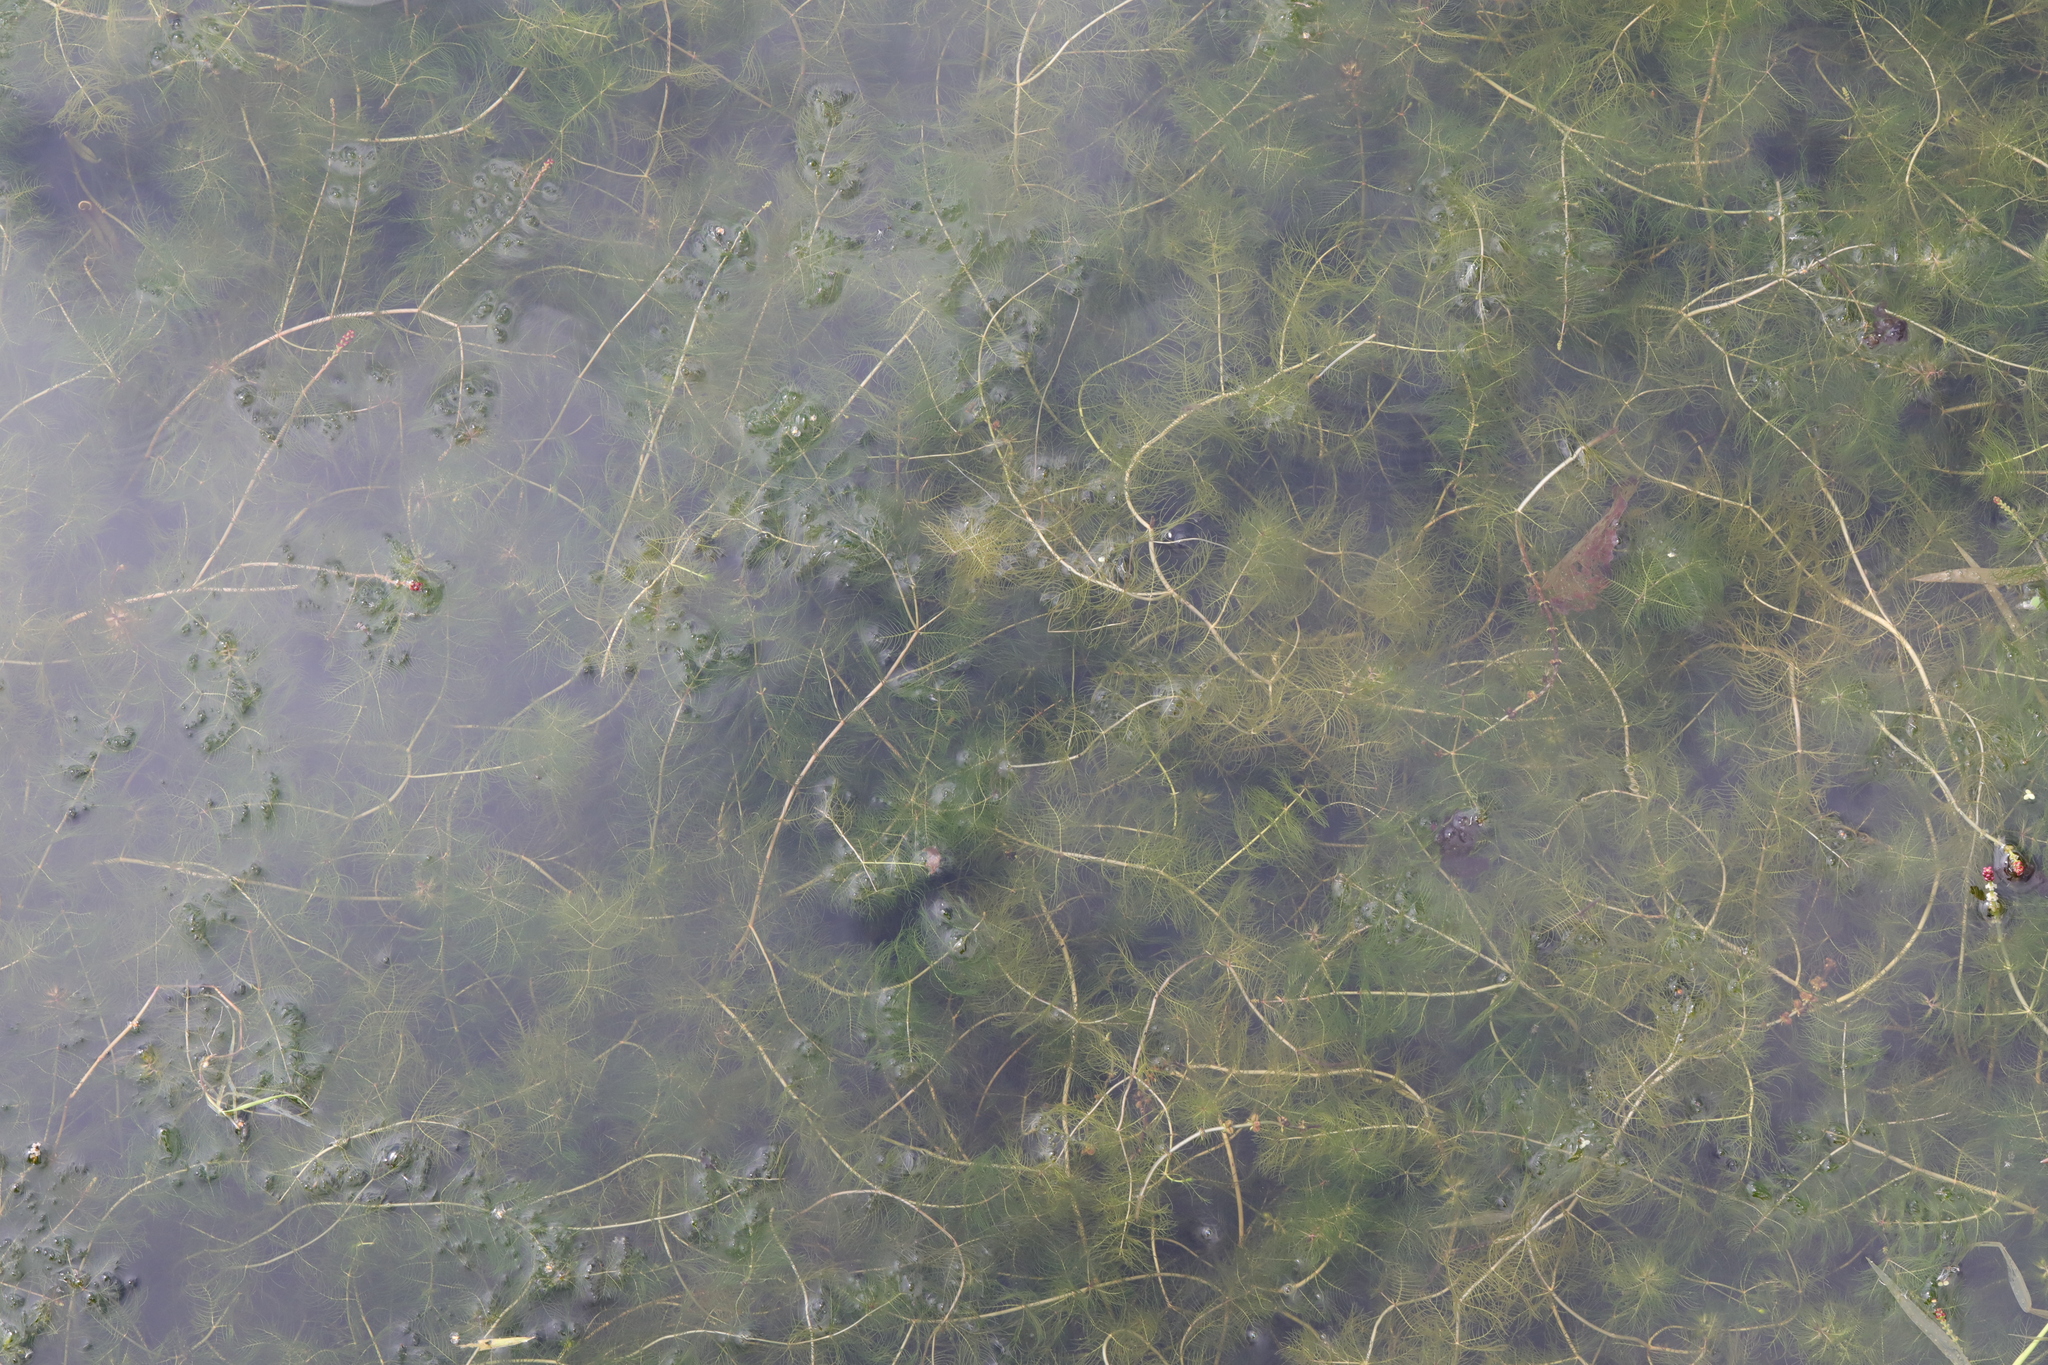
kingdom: Plantae
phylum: Tracheophyta
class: Magnoliopsida
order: Saxifragales
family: Haloragaceae
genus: Myriophyllum
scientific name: Myriophyllum spicatum
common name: Spiked water-milfoil
